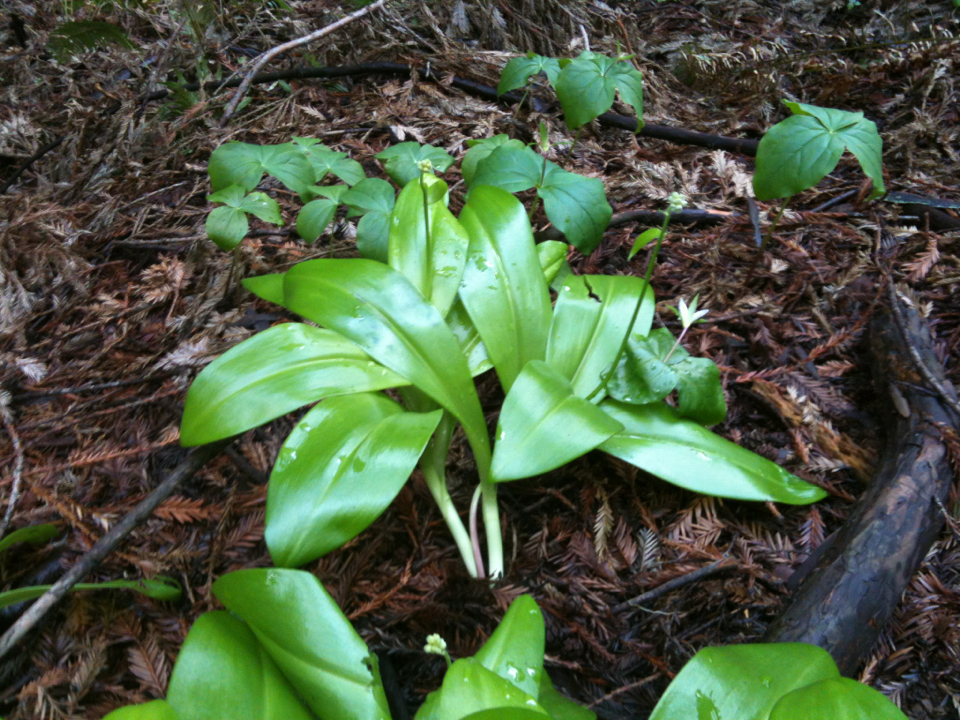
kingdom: Plantae
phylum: Tracheophyta
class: Liliopsida
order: Liliales
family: Liliaceae
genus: Clintonia
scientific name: Clintonia andrewsiana
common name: Red clintonia
